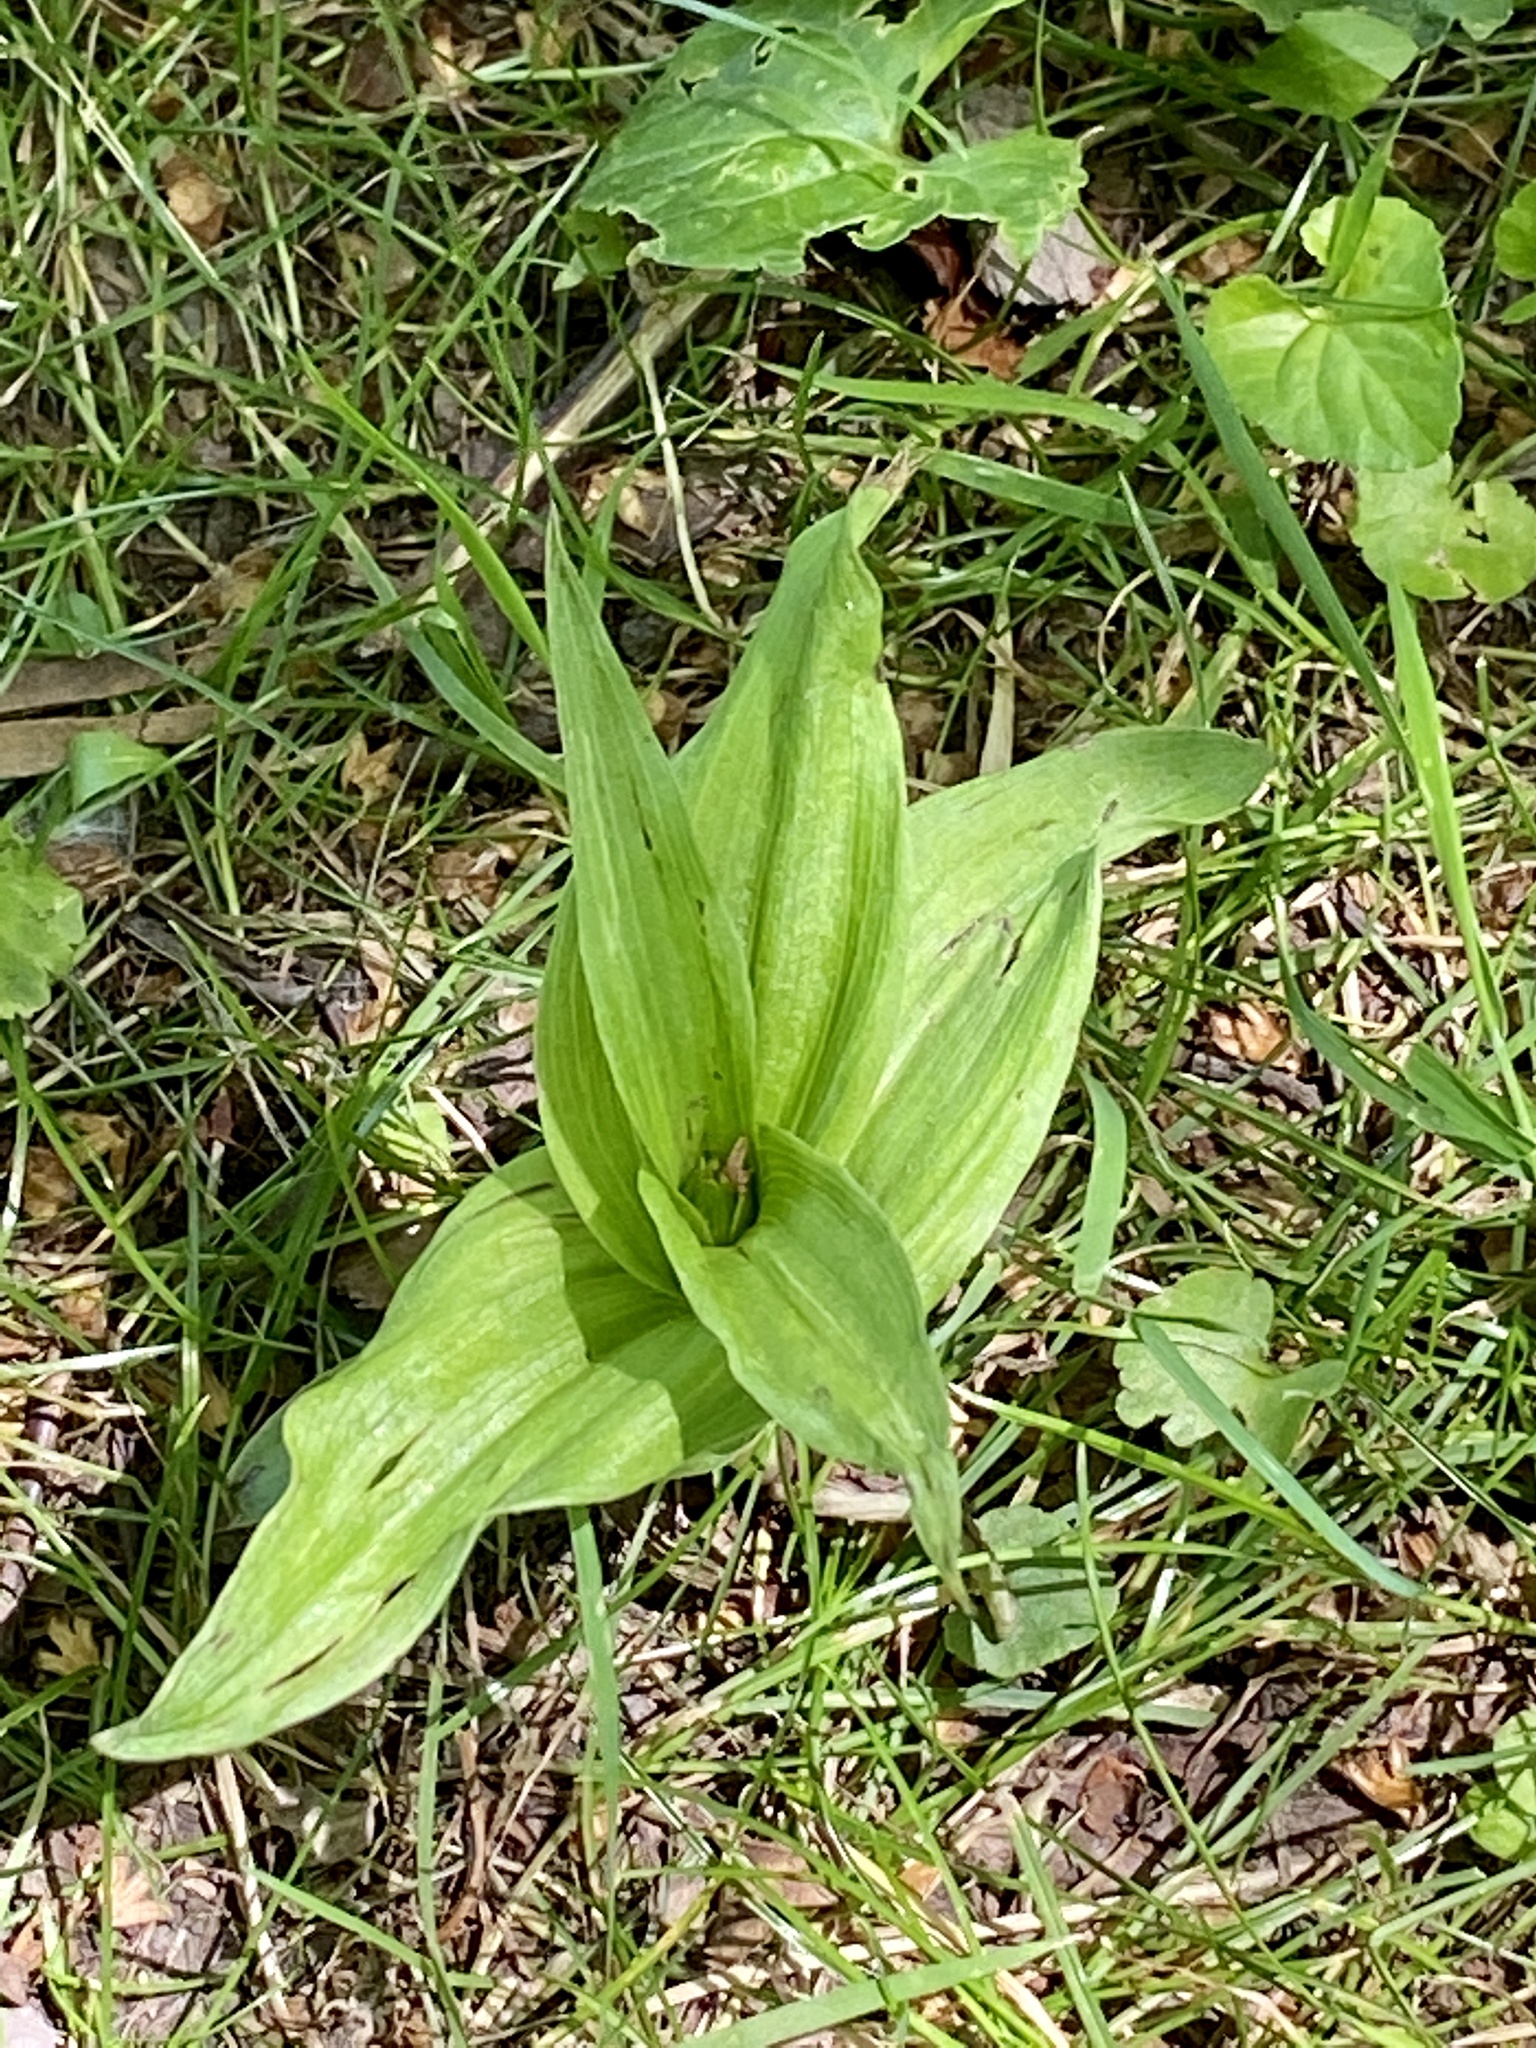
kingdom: Plantae
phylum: Tracheophyta
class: Liliopsida
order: Asparagales
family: Orchidaceae
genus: Epipactis
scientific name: Epipactis helleborine
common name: Broad-leaved helleborine
